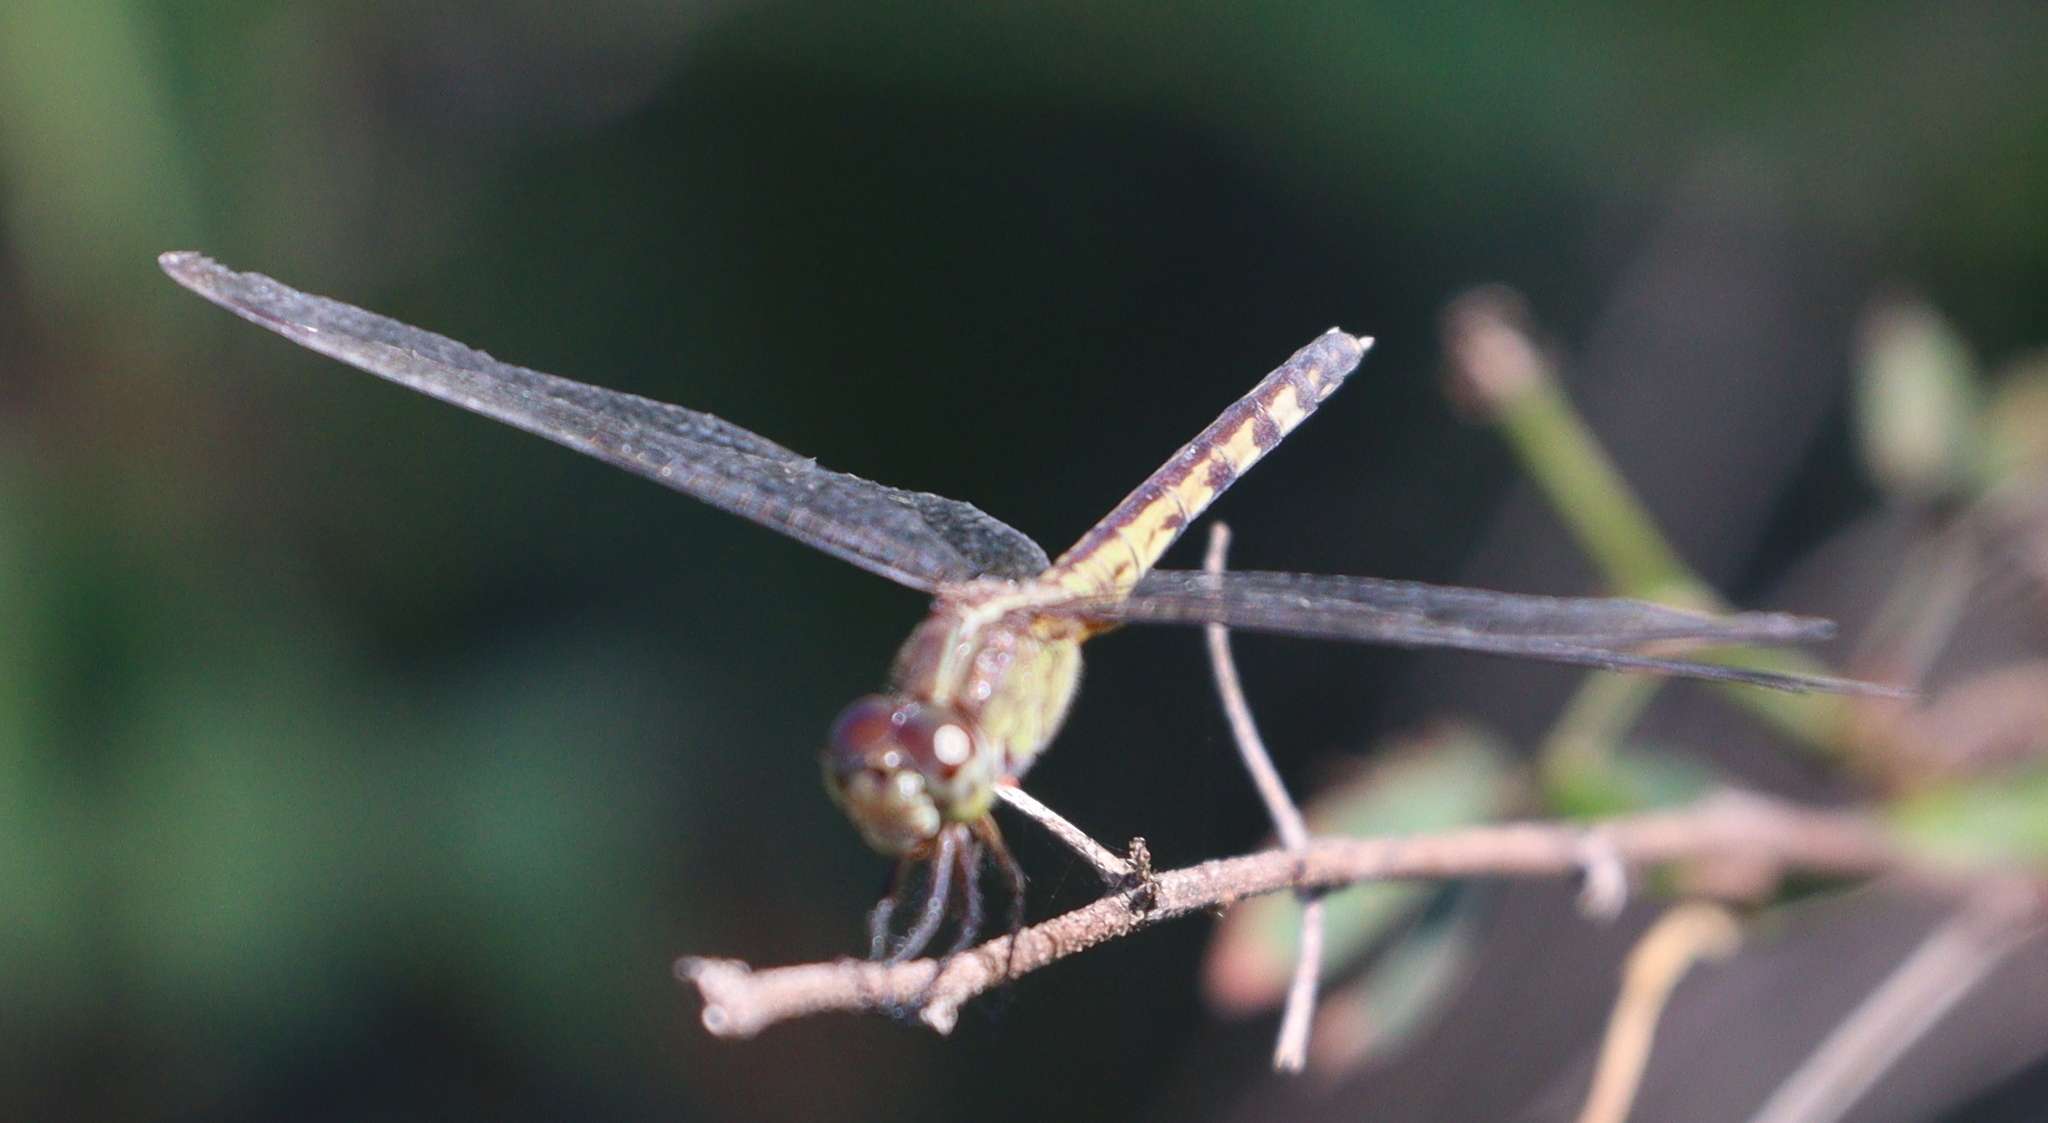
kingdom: Animalia
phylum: Arthropoda
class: Insecta
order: Odonata
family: Libellulidae
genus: Erythrodiplax
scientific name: Erythrodiplax umbrata
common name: Band-winged dragonlet
